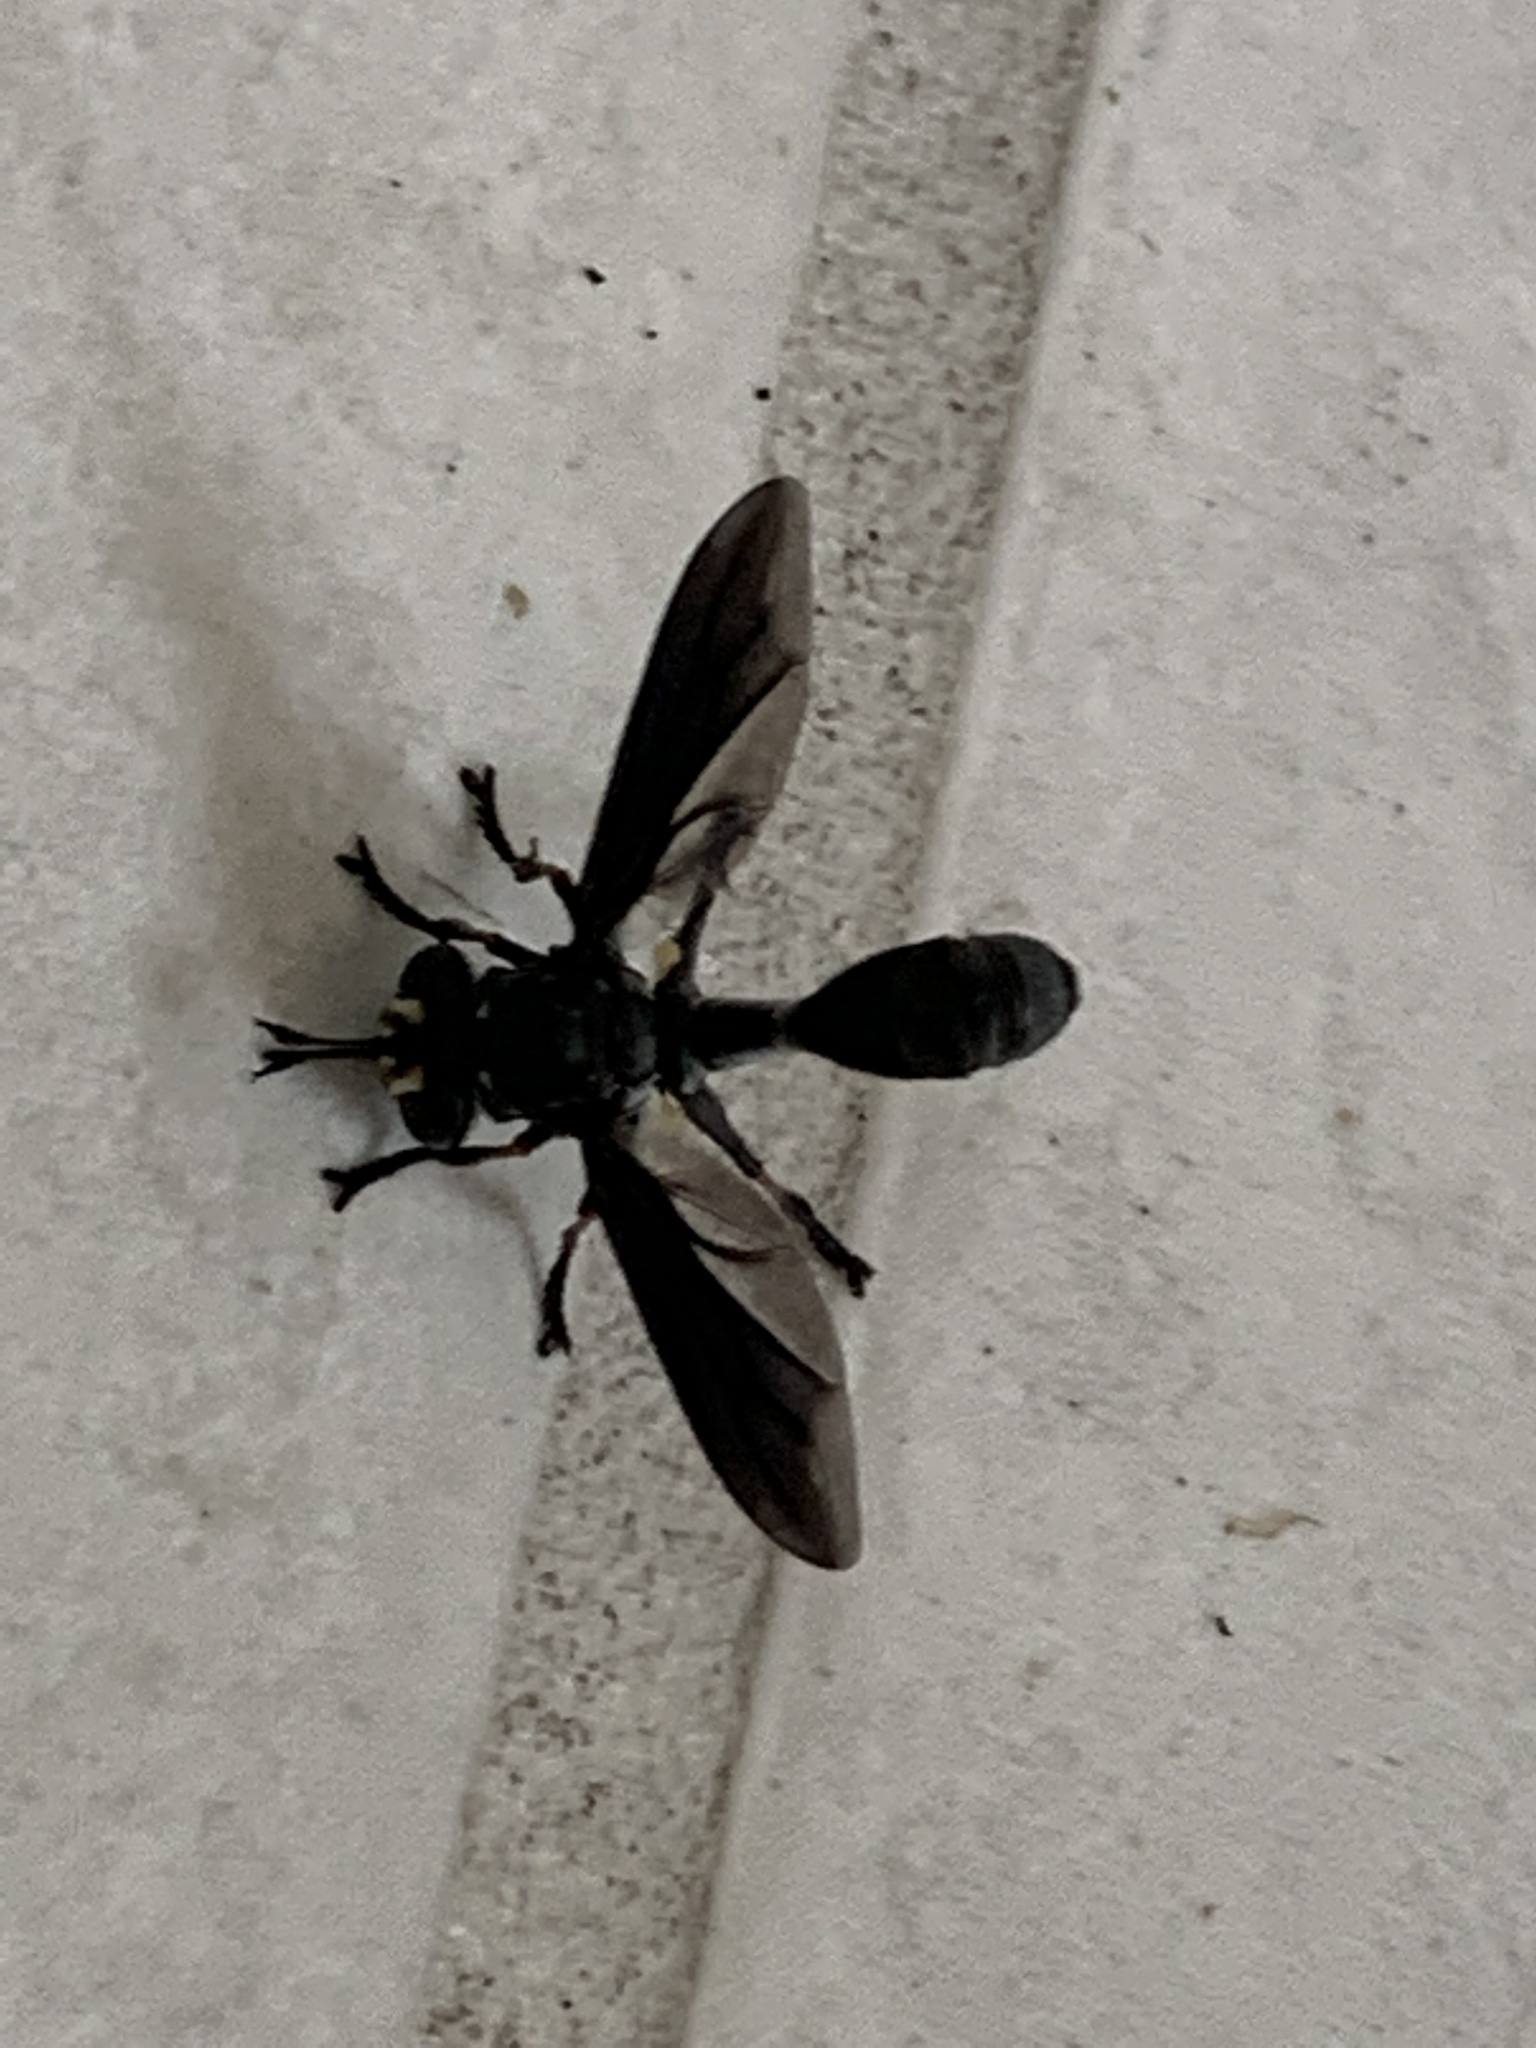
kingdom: Animalia
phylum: Arthropoda
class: Insecta
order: Diptera
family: Conopidae
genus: Physocephala
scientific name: Physocephala floridana
